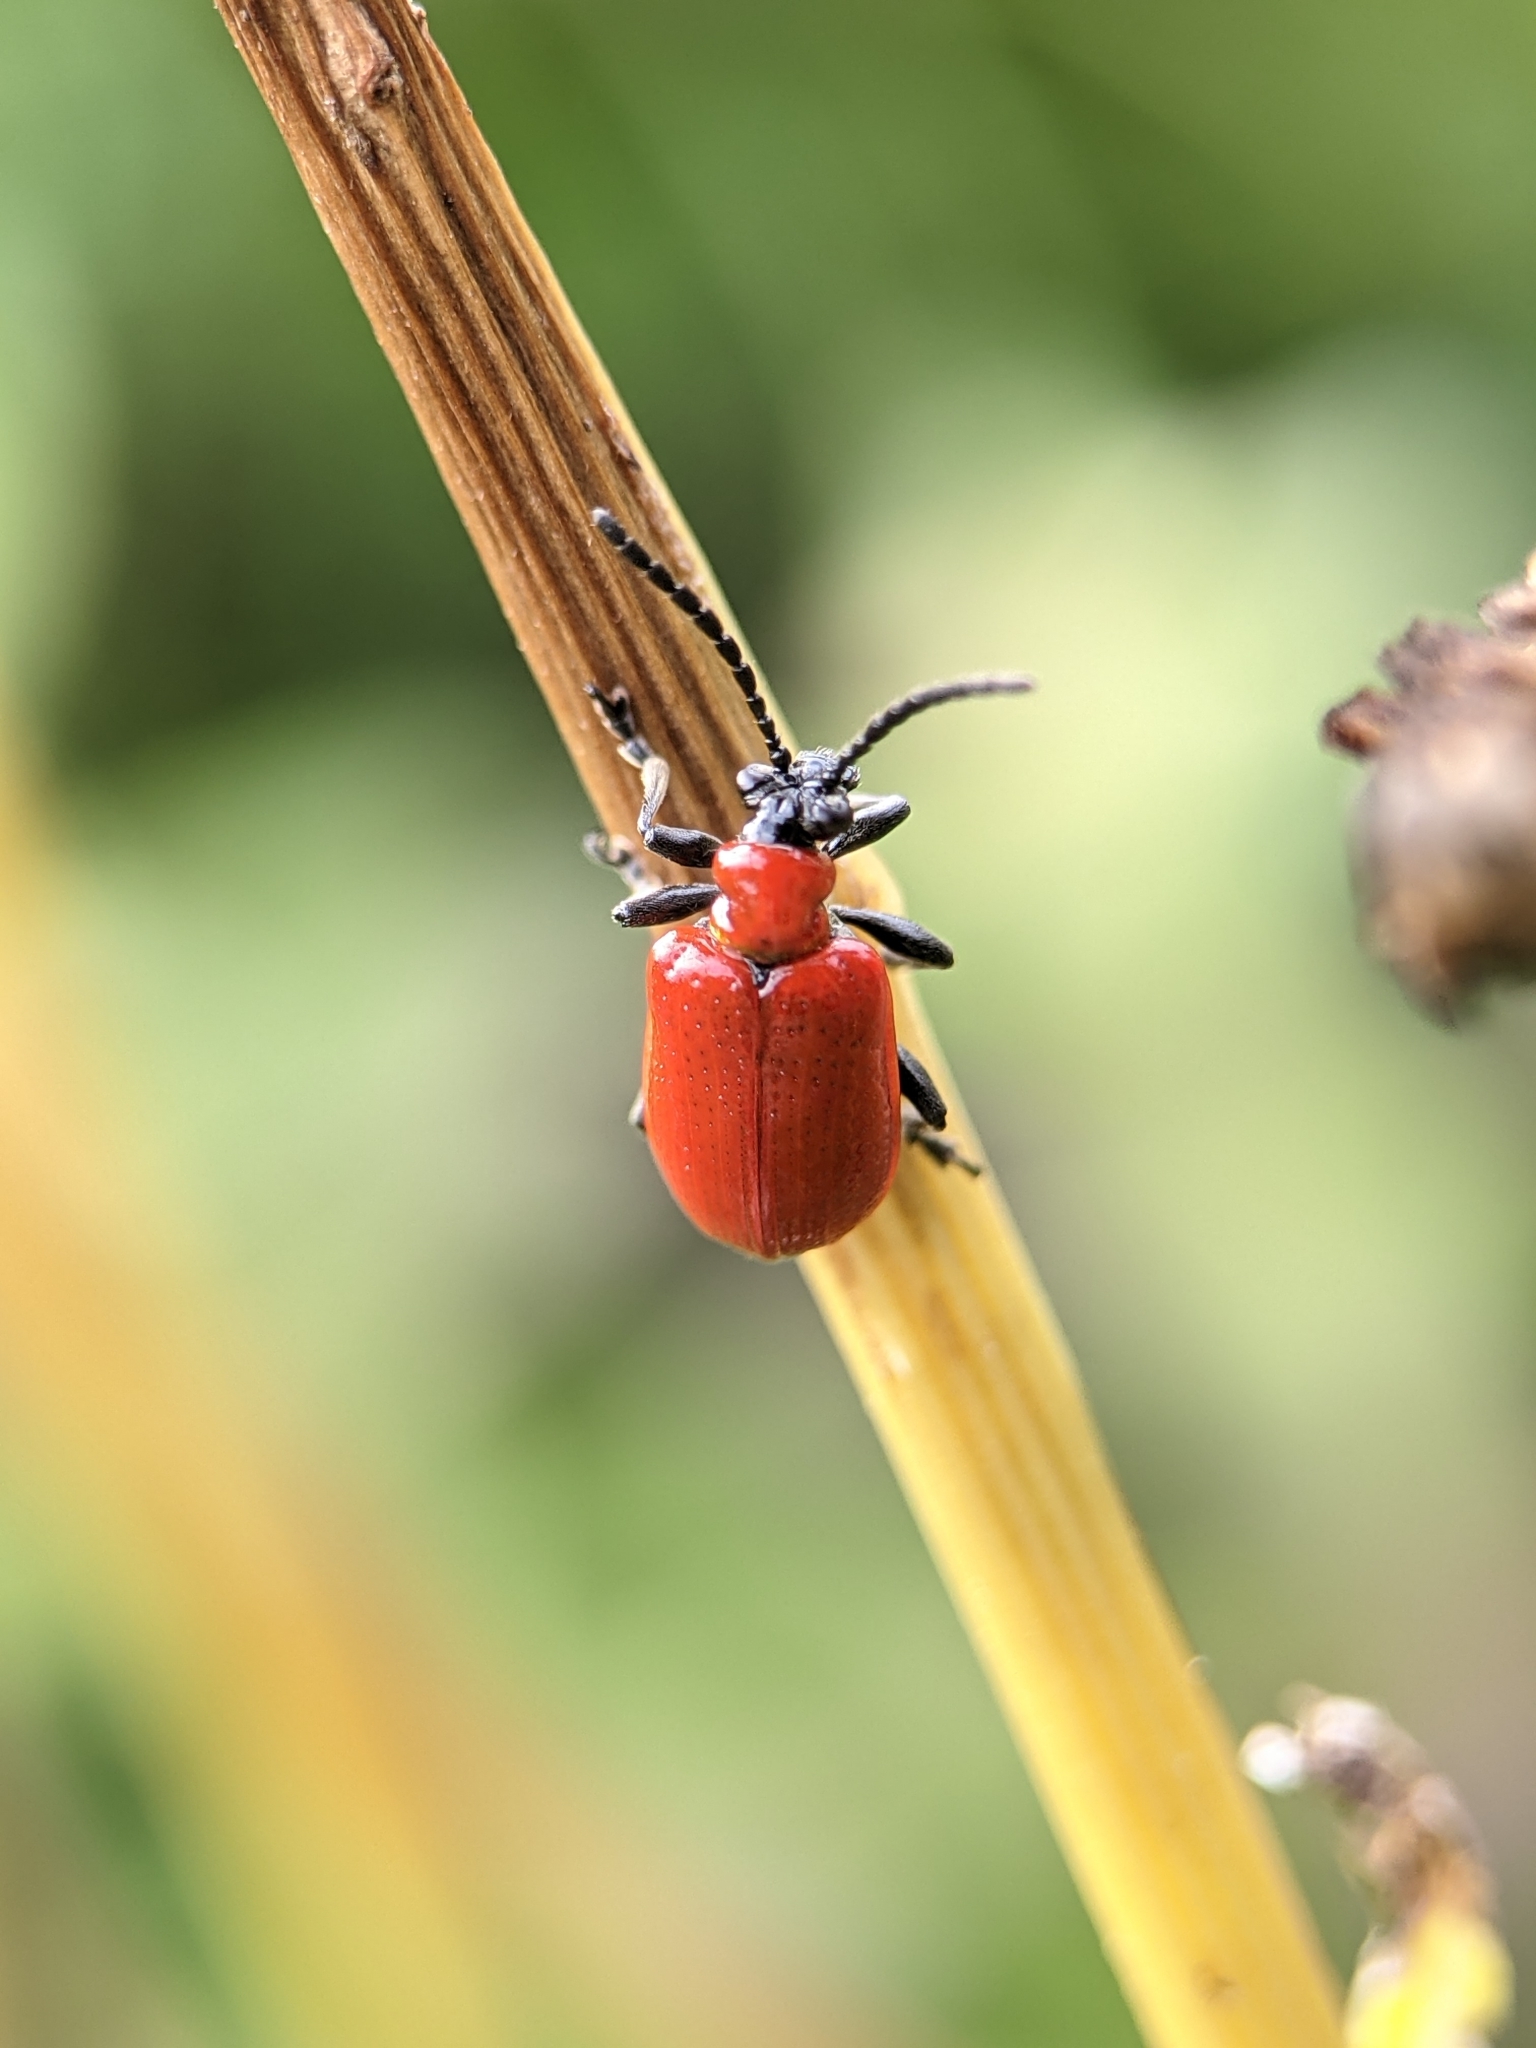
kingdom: Animalia
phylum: Arthropoda
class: Insecta
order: Coleoptera
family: Chrysomelidae
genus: Lilioceris
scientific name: Lilioceris lilii
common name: Lily beetle
